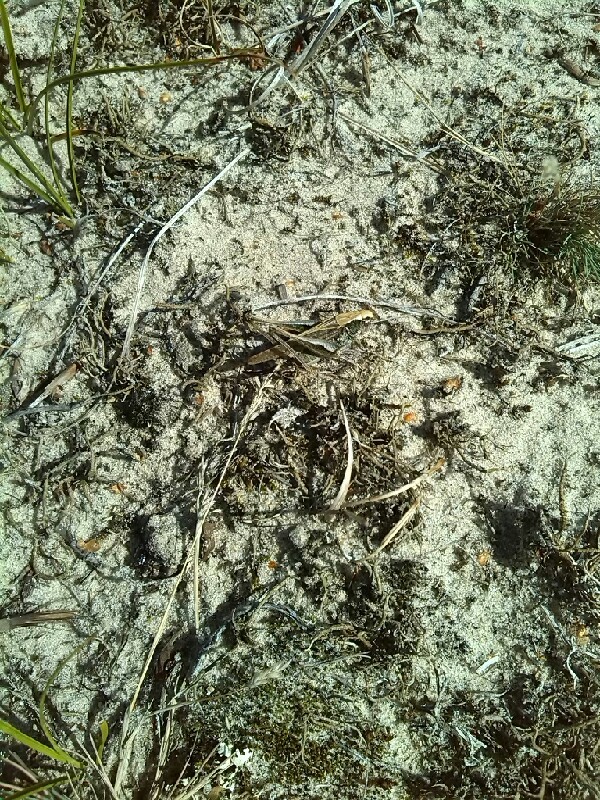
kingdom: Animalia
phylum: Arthropoda
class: Insecta
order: Orthoptera
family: Tettigoniidae
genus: Platycleis
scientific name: Platycleis albopunctata
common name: Grey bush-cricket
